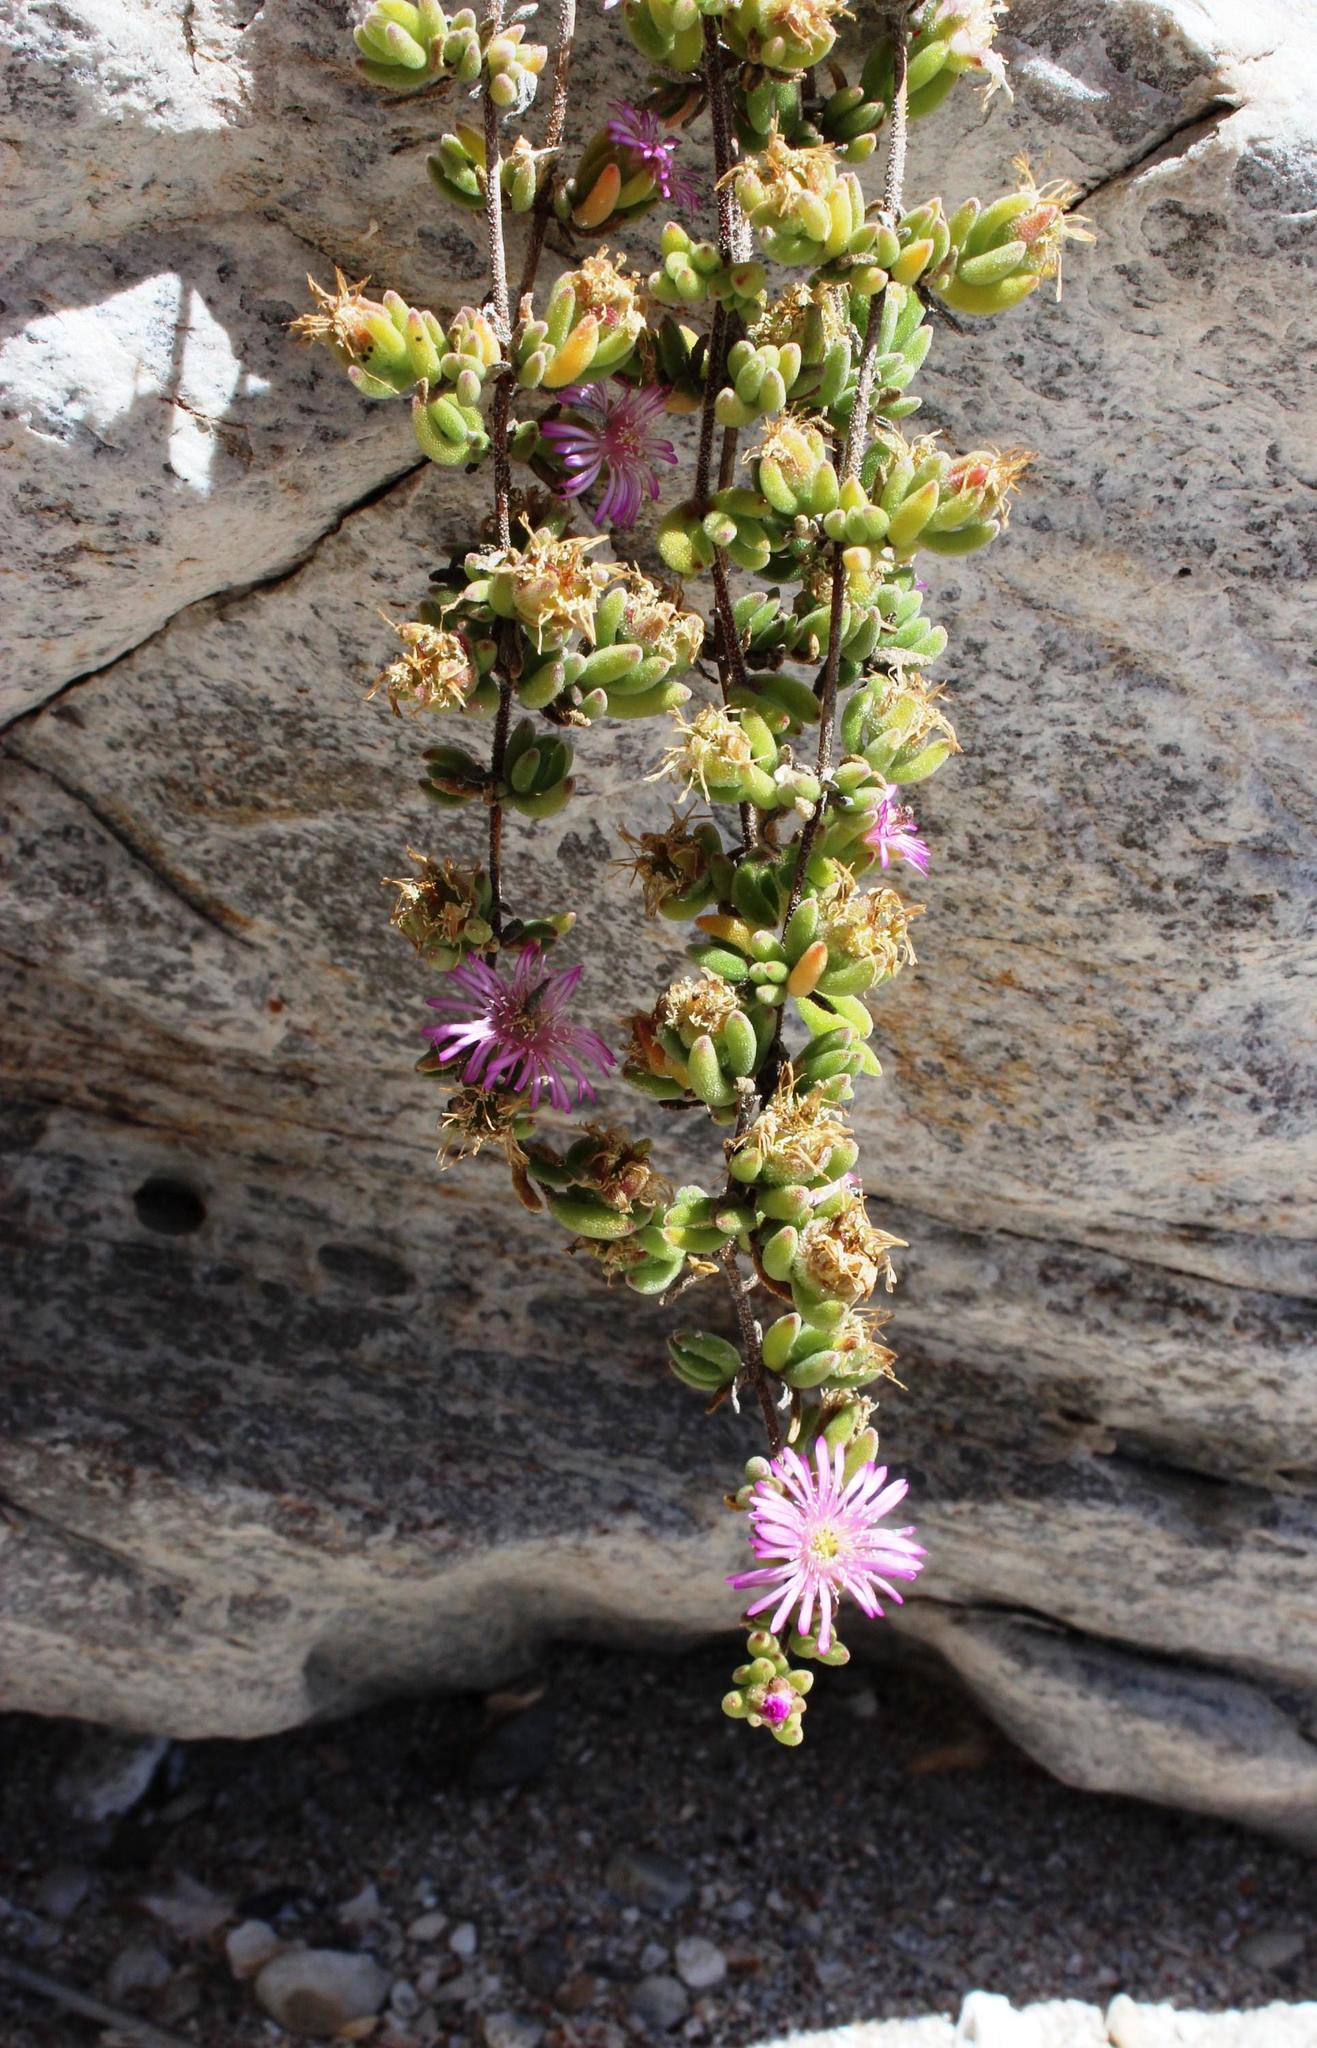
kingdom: Plantae
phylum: Tracheophyta
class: Magnoliopsida
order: Caryophyllales
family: Aizoaceae
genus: Drosanthemum
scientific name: Drosanthemum candens
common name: Rodondo-creeper
